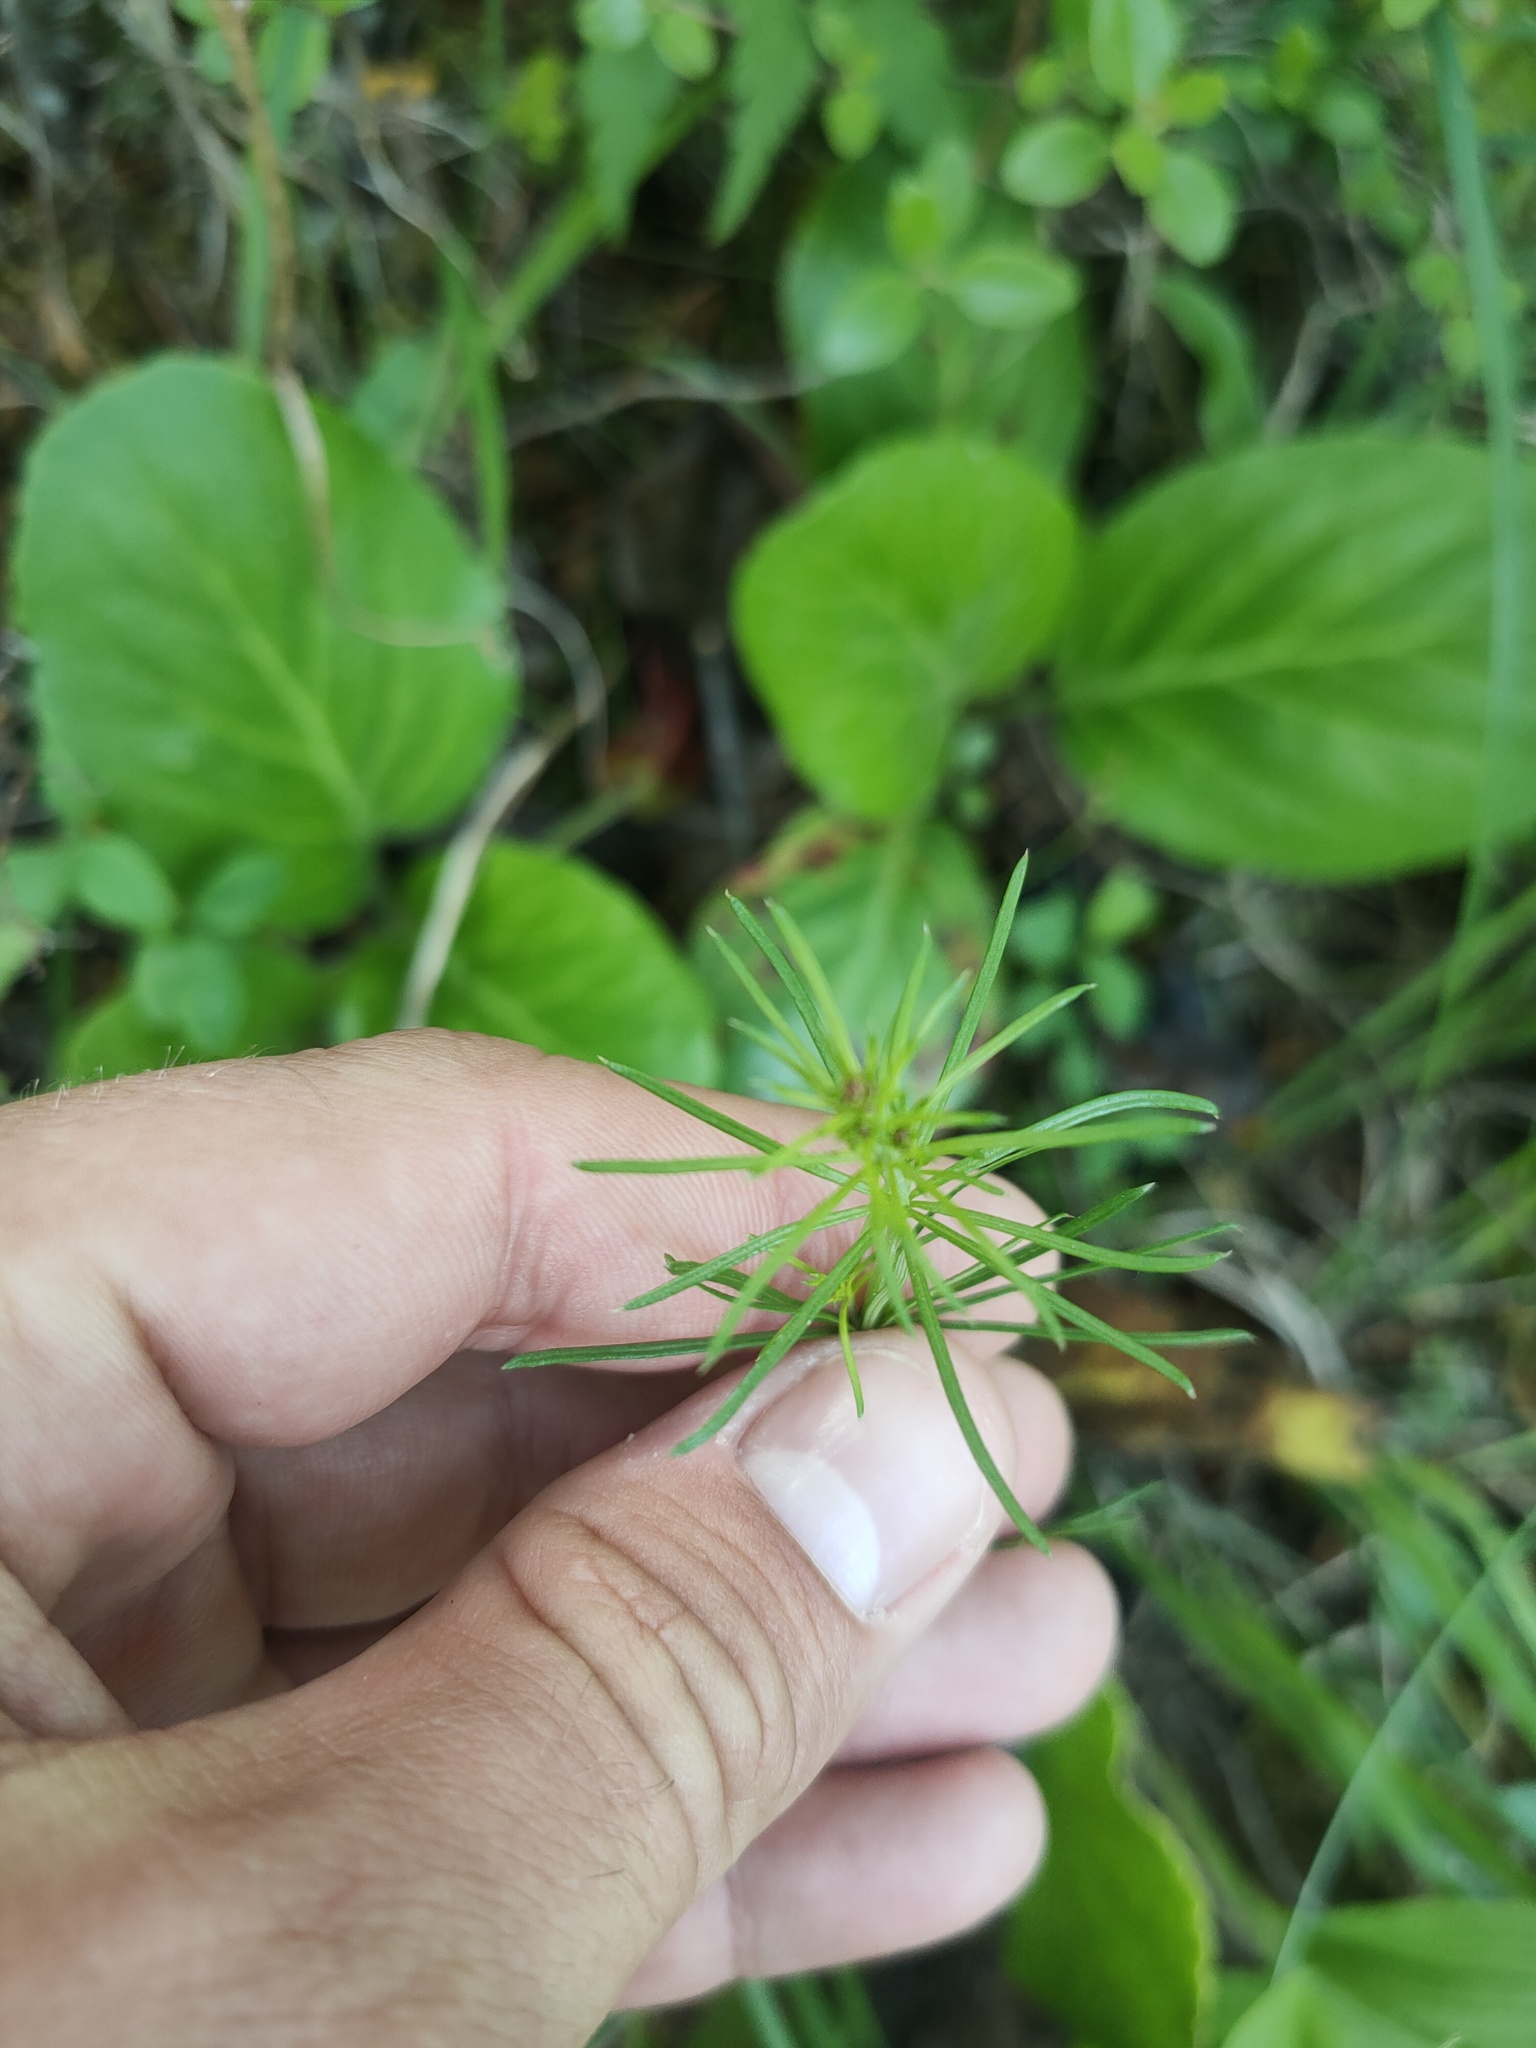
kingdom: Plantae
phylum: Tracheophyta
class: Magnoliopsida
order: Gentianales
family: Rubiaceae
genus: Galium
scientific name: Galium verum
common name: Lady's bedstraw
